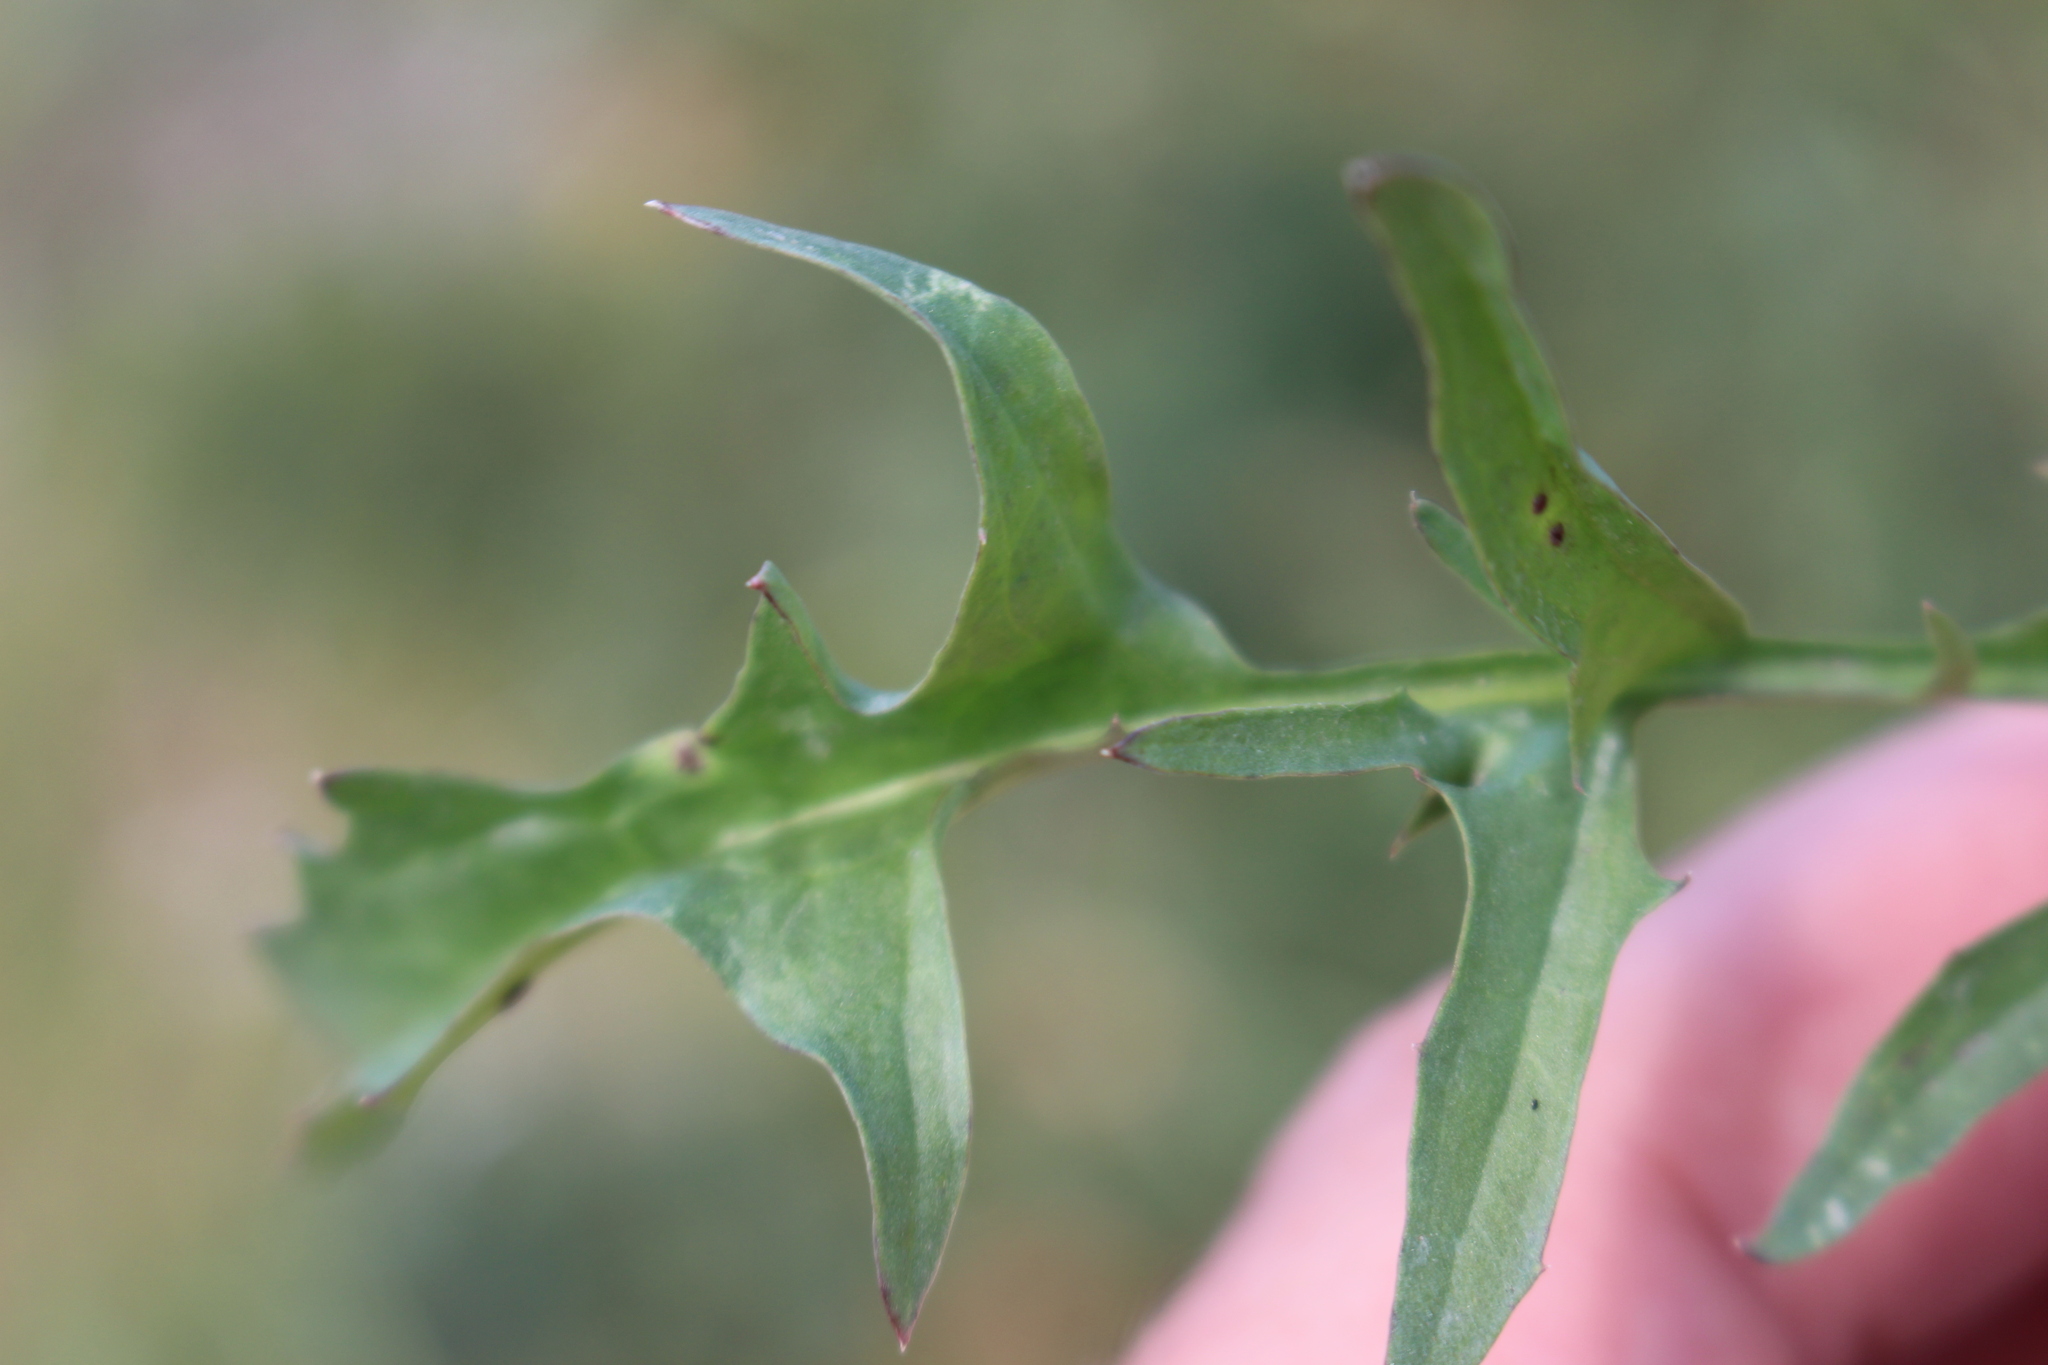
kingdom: Plantae
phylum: Tracheophyta
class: Magnoliopsida
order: Asterales
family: Asteraceae
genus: Crepis
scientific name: Crepis capillaris
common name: Smooth hawksbeard
